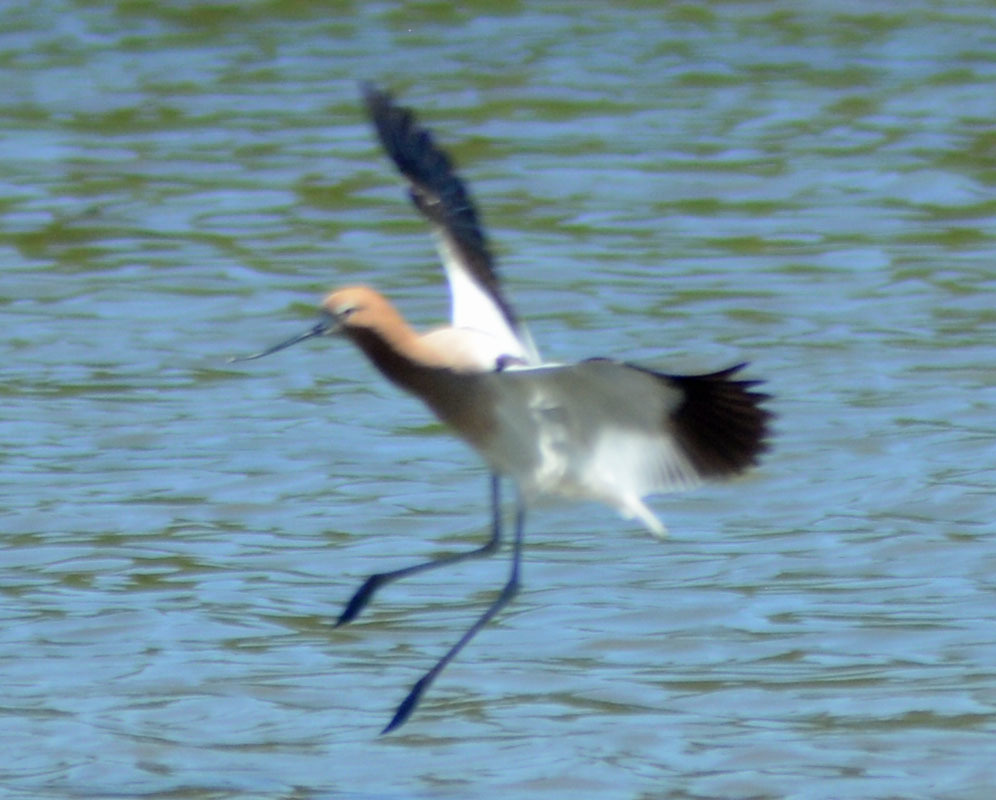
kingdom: Animalia
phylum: Chordata
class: Aves
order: Charadriiformes
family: Recurvirostridae
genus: Recurvirostra
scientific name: Recurvirostra americana
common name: American avocet
